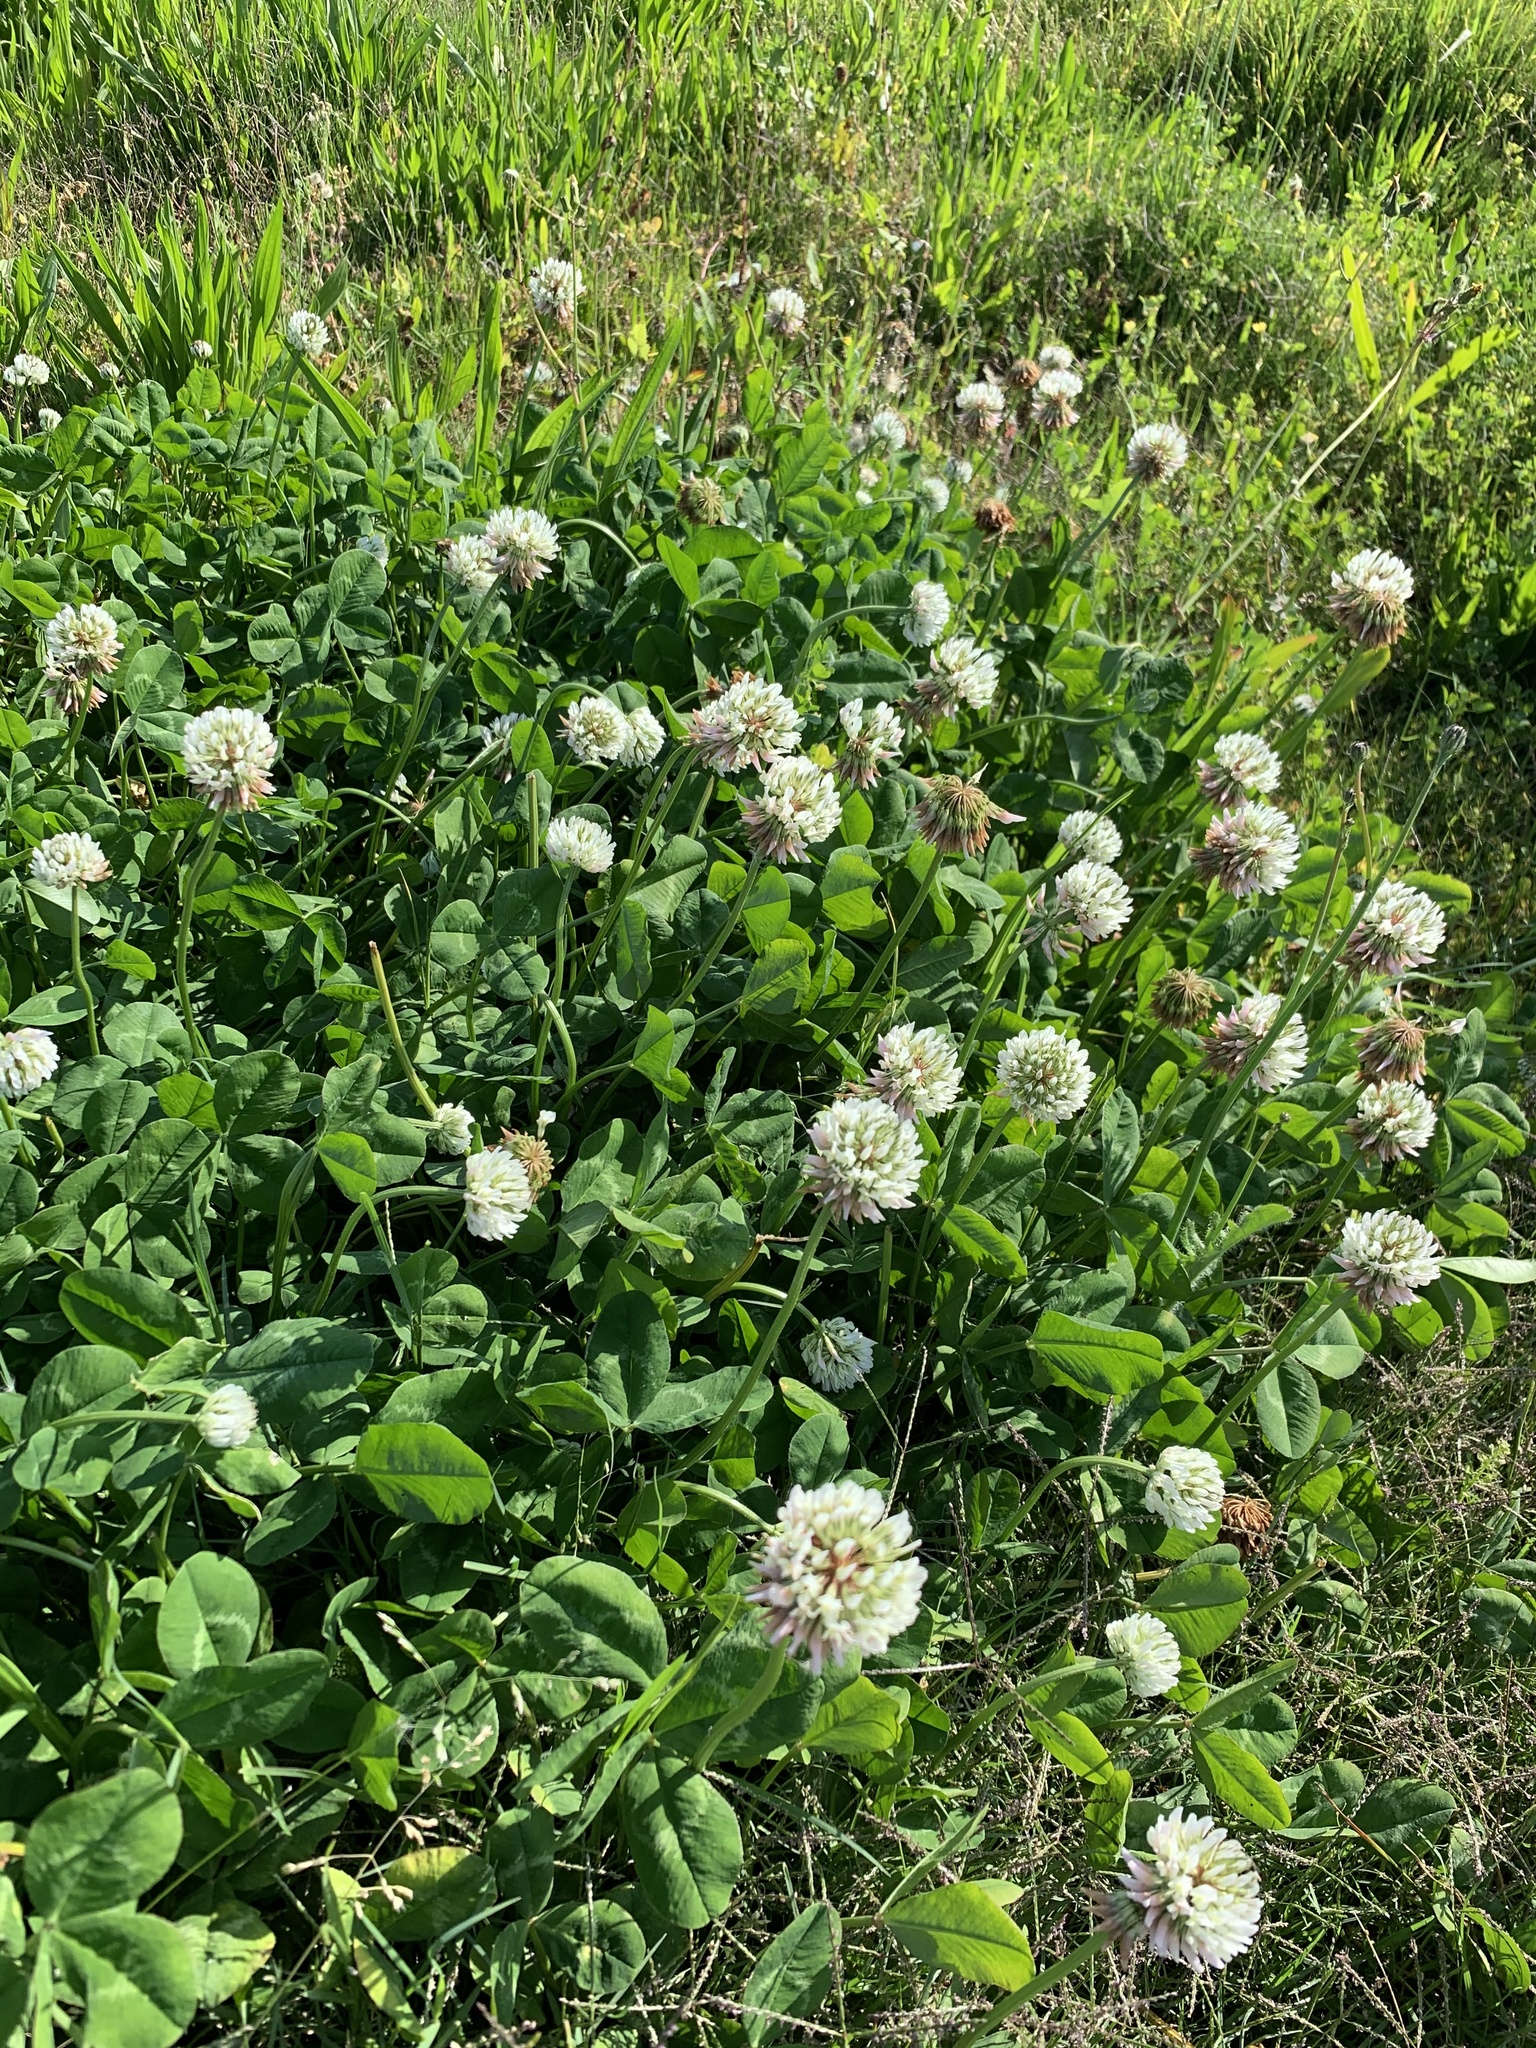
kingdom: Plantae
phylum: Tracheophyta
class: Magnoliopsida
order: Fabales
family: Fabaceae
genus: Trifolium
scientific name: Trifolium repens
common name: White clover
